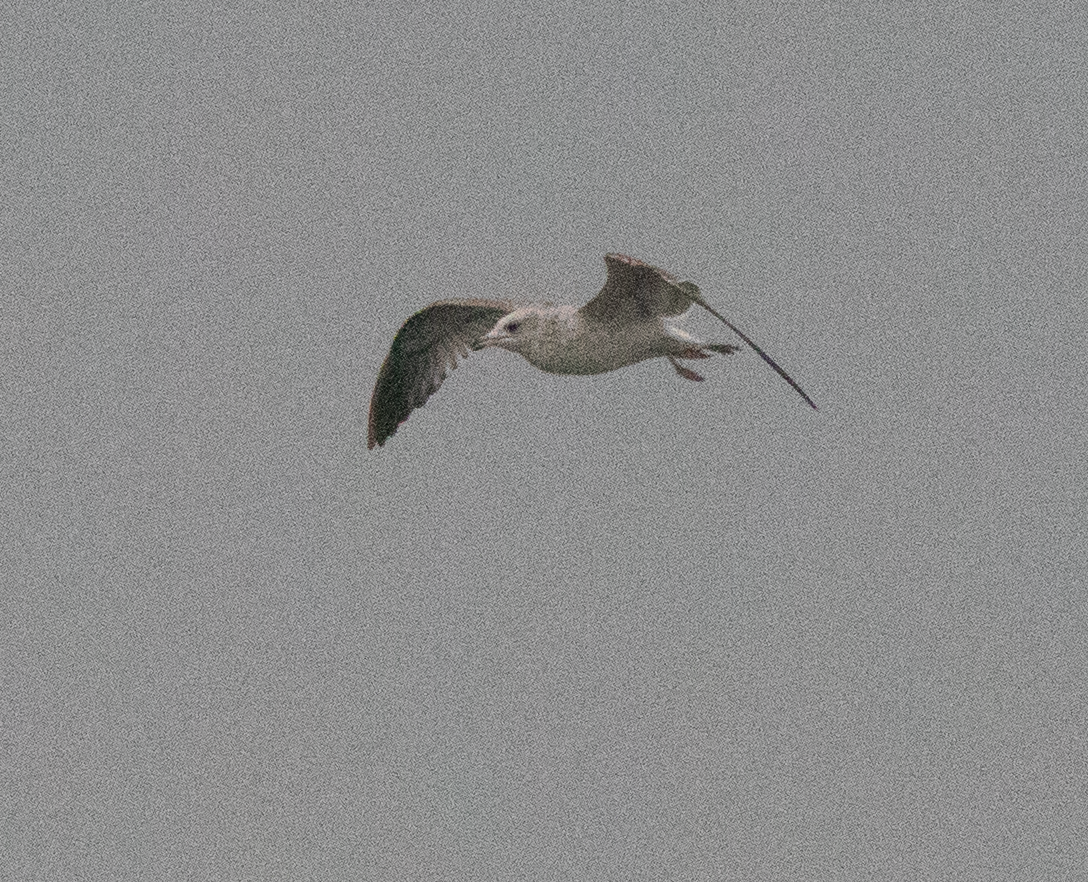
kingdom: Animalia
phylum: Chordata
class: Aves
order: Charadriiformes
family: Laridae
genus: Larus
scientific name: Larus canus
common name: Mew gull
